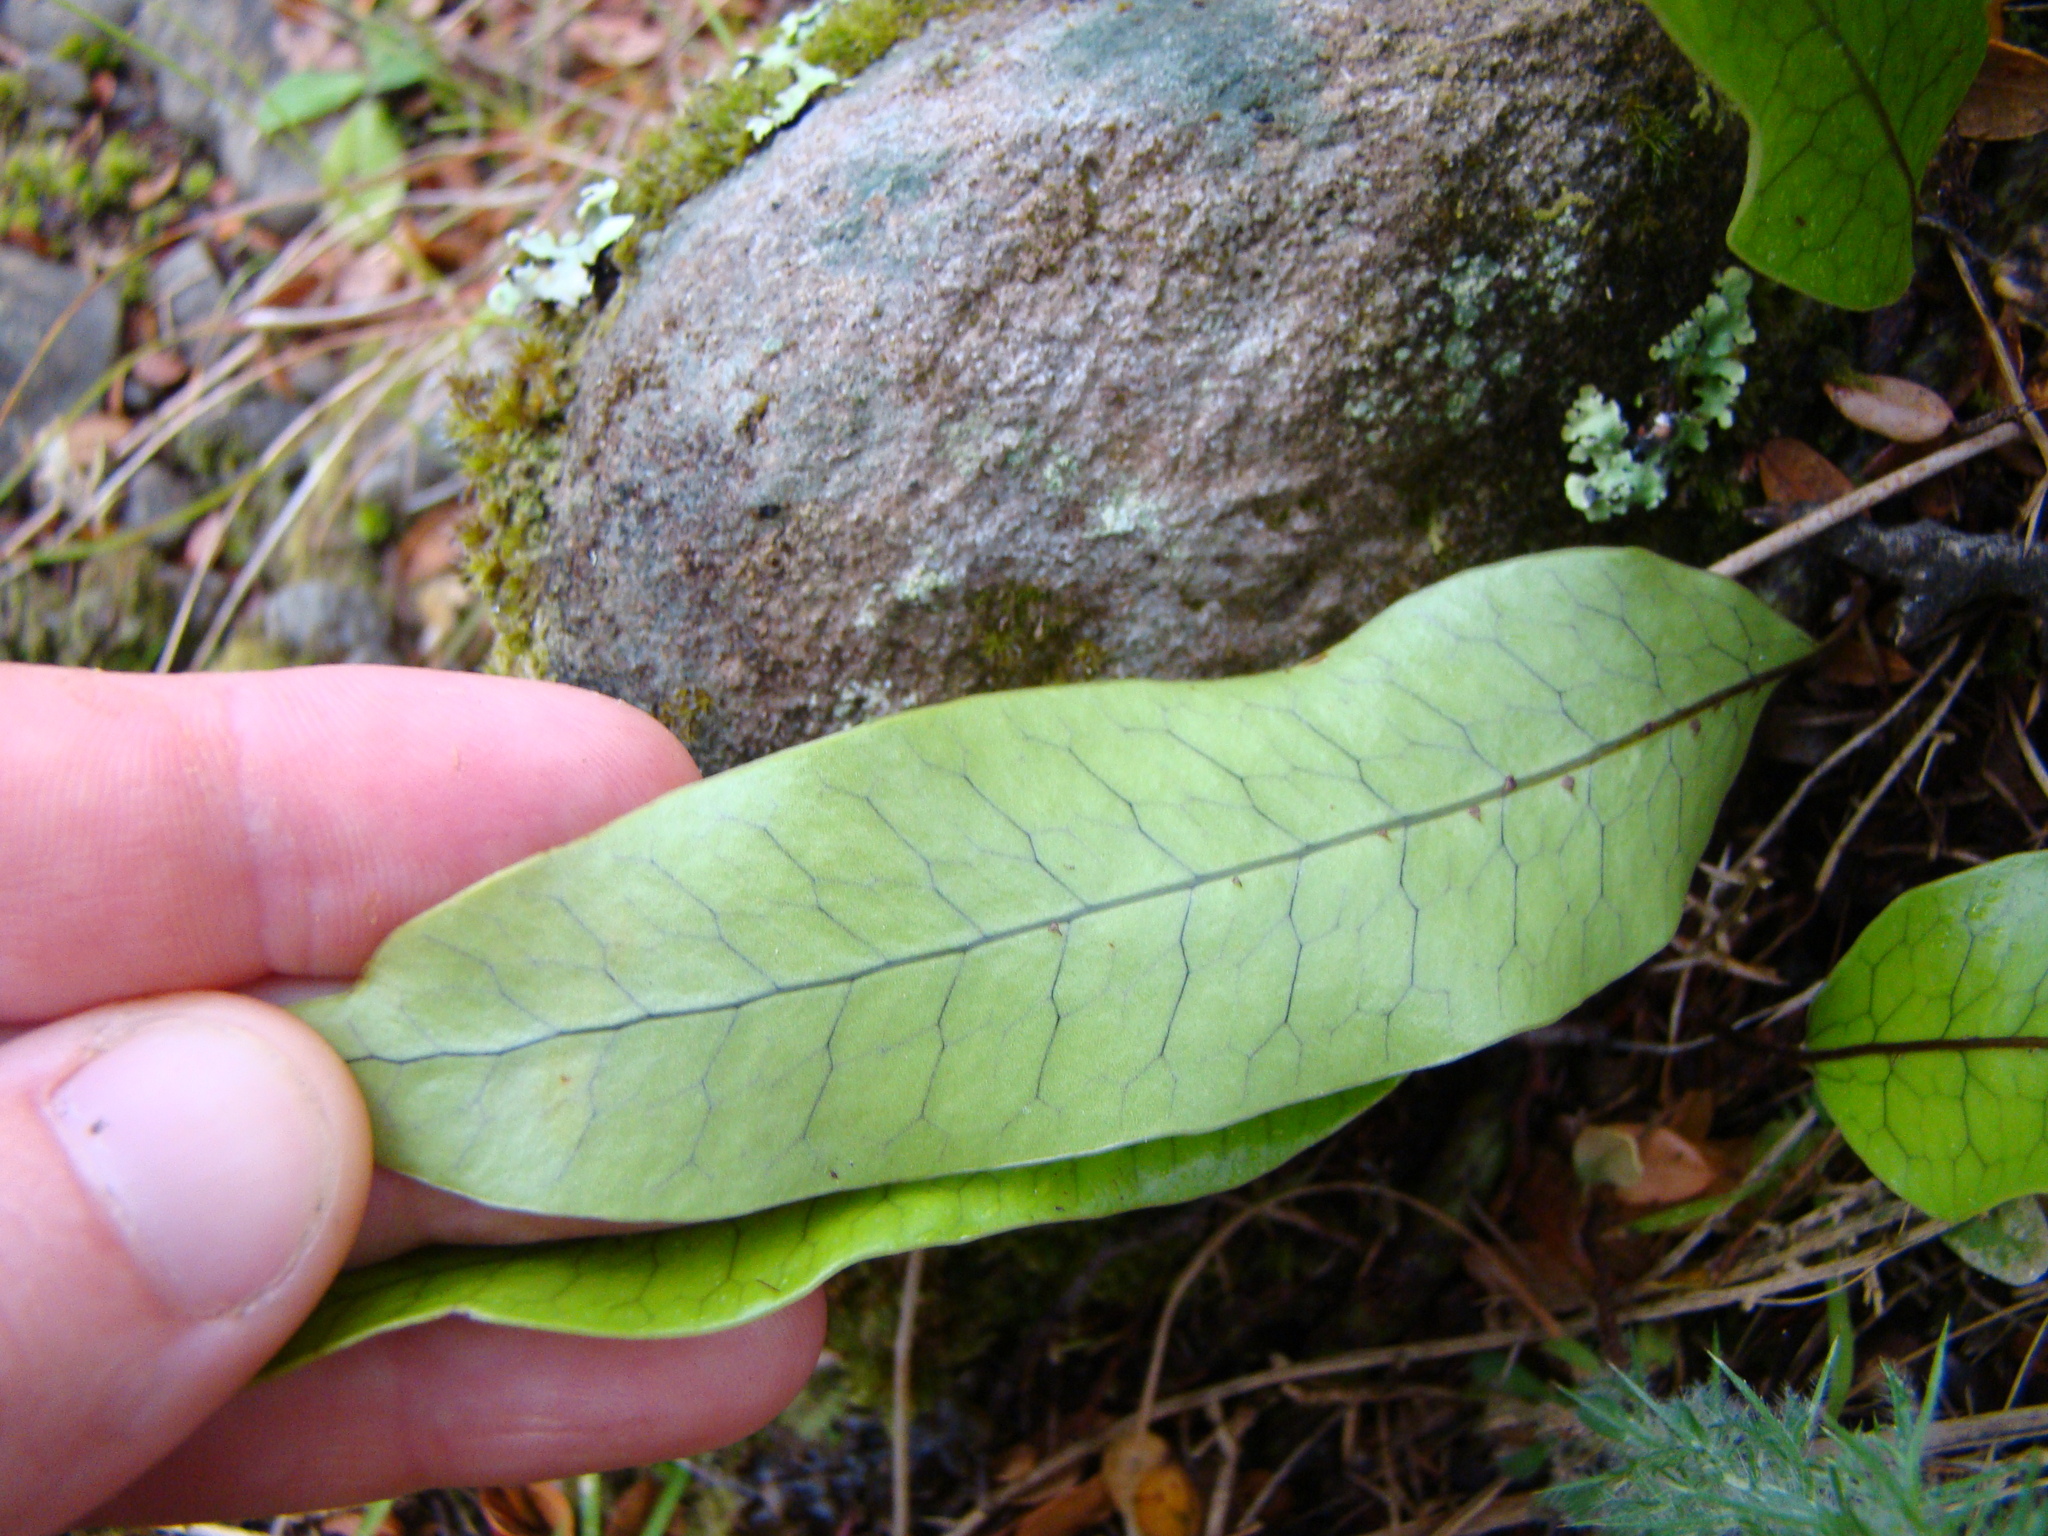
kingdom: Plantae
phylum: Tracheophyta
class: Polypodiopsida
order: Polypodiales
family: Polypodiaceae
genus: Lecanopteris
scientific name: Lecanopteris pustulata
